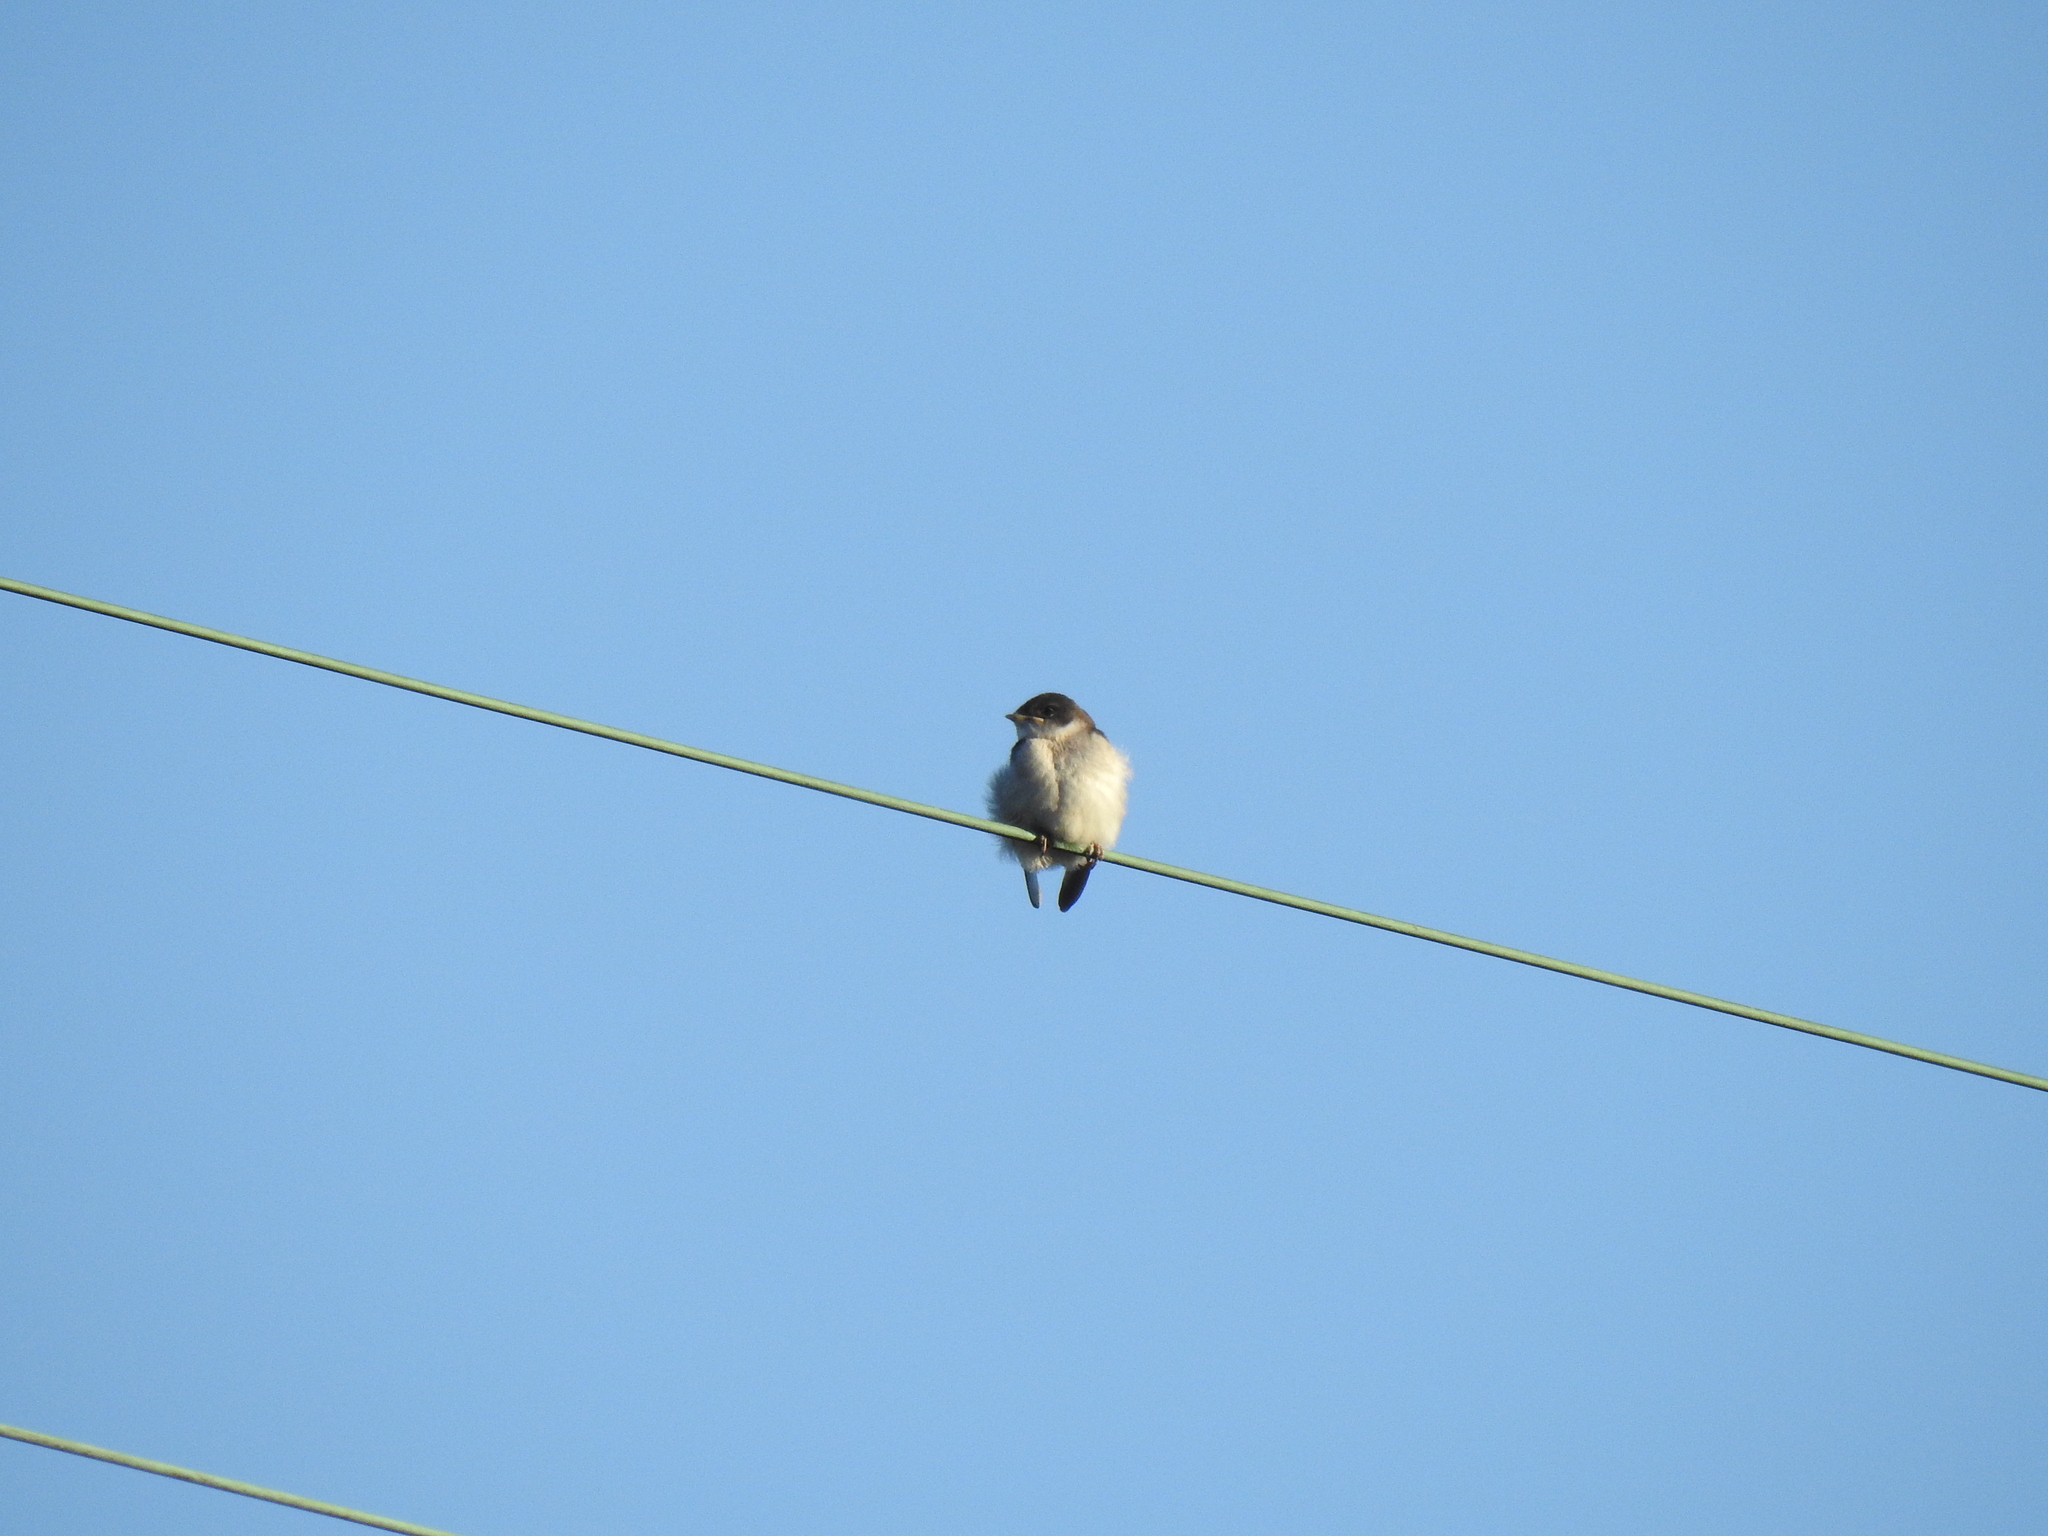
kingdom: Animalia
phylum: Chordata
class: Aves
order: Passeriformes
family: Hirundinidae
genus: Tachycineta
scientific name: Tachycineta bicolor
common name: Tree swallow
